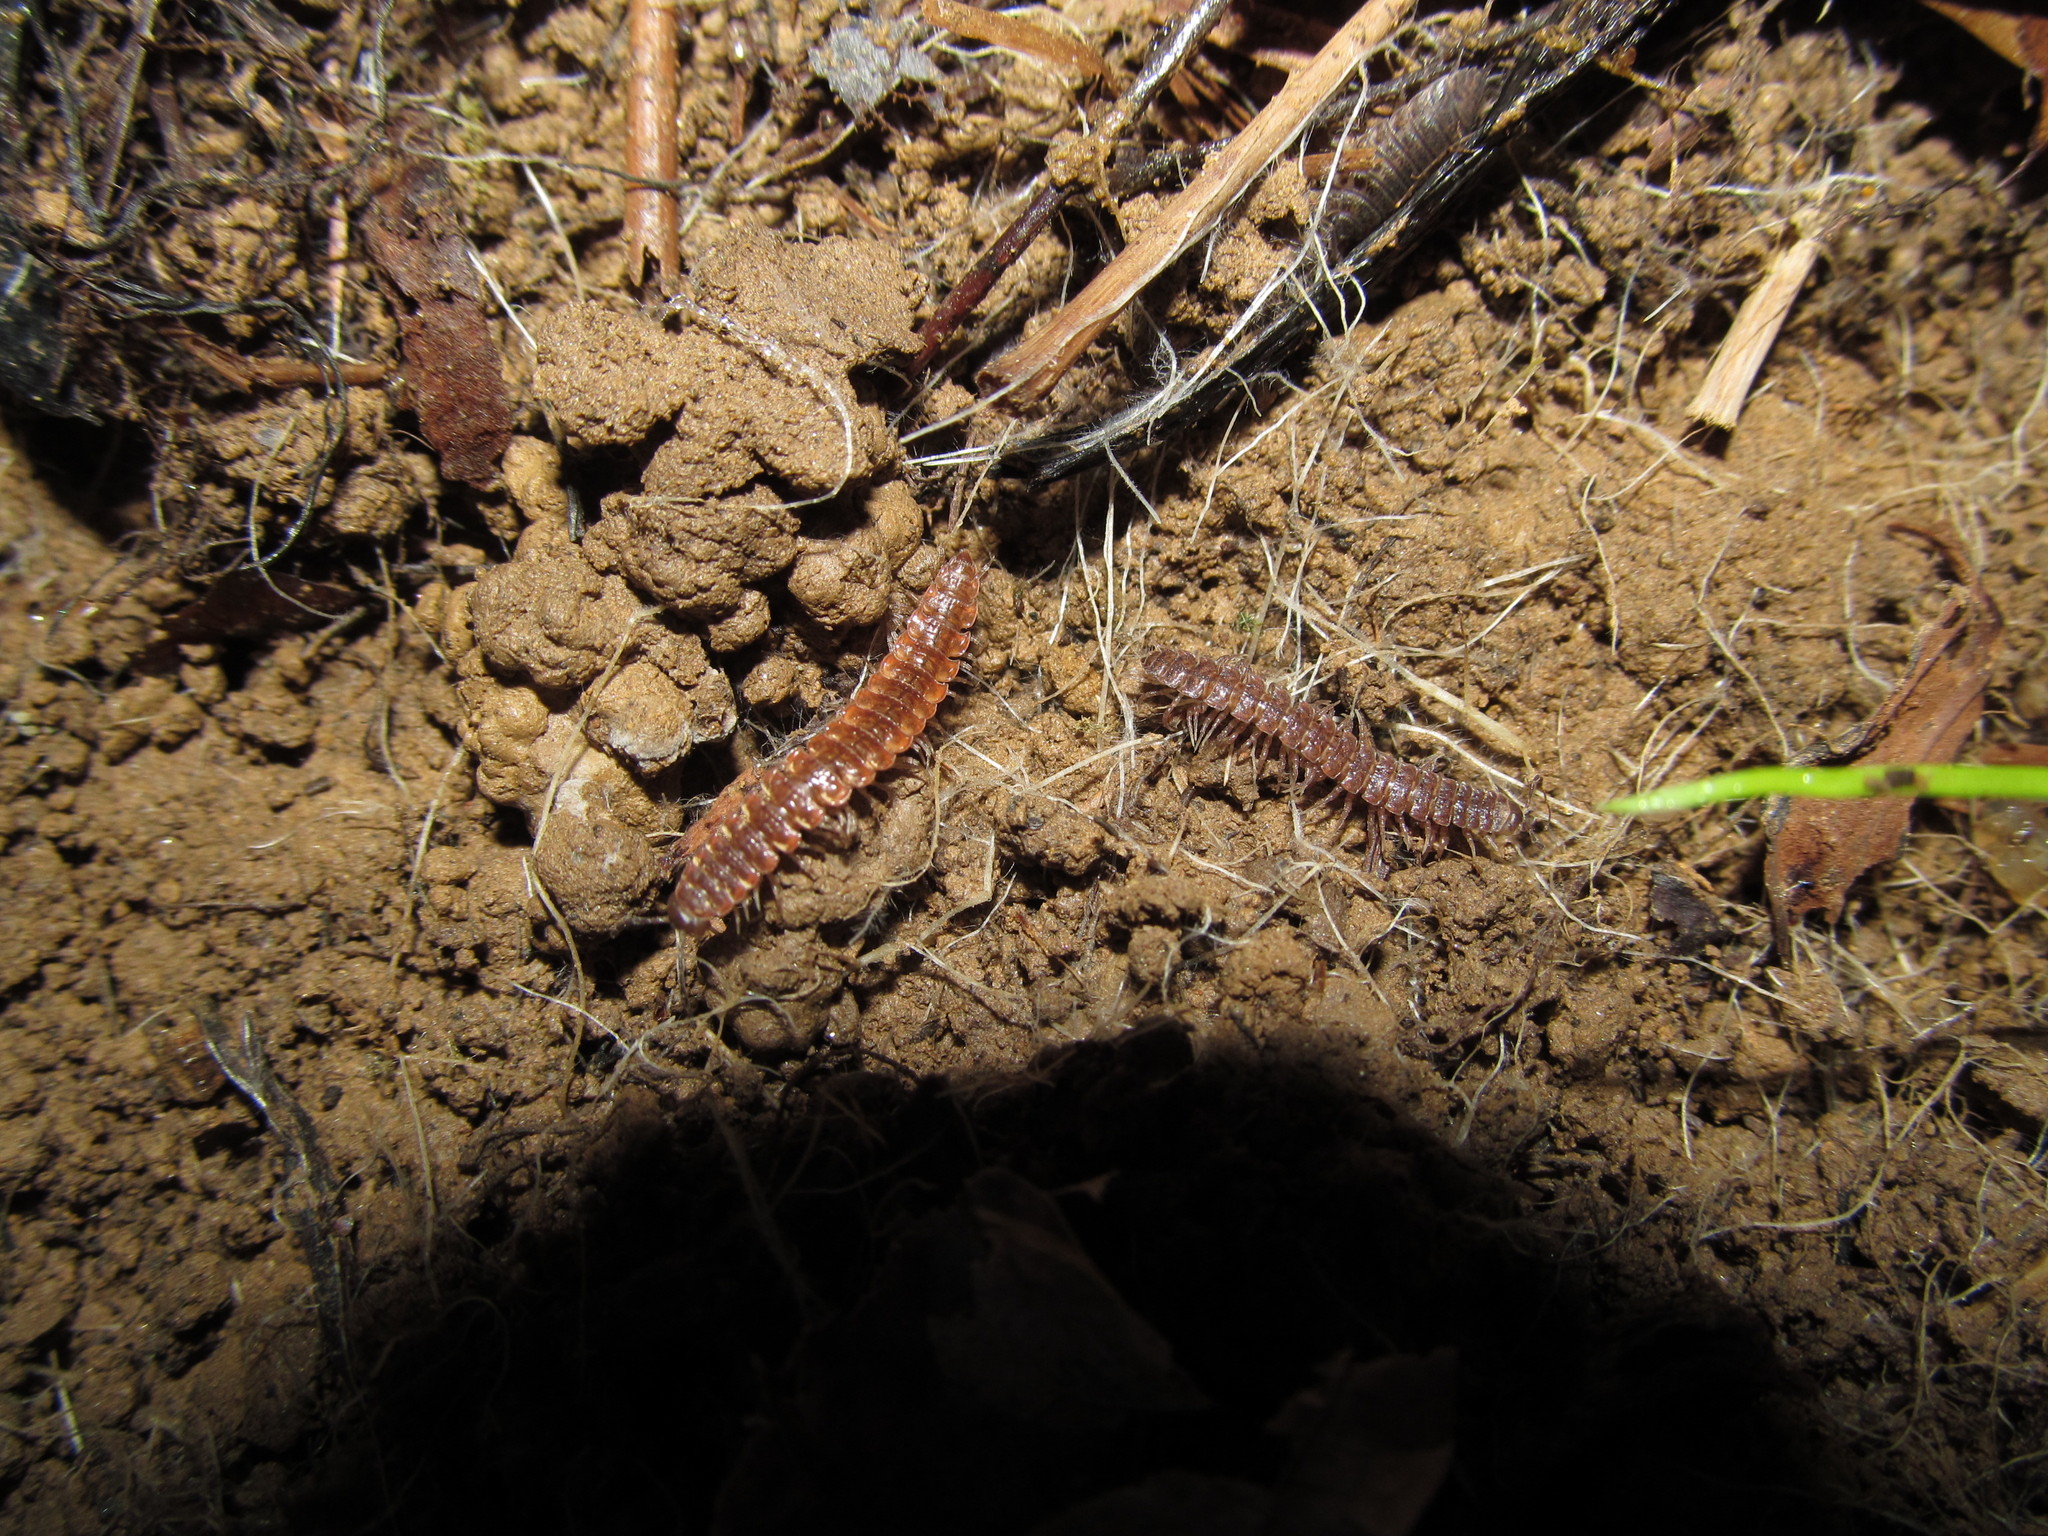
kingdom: Animalia
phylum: Arthropoda
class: Diplopoda
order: Polydesmida
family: Polydesmidae
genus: Pseudopolydesmus
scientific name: Pseudopolydesmus collinus
